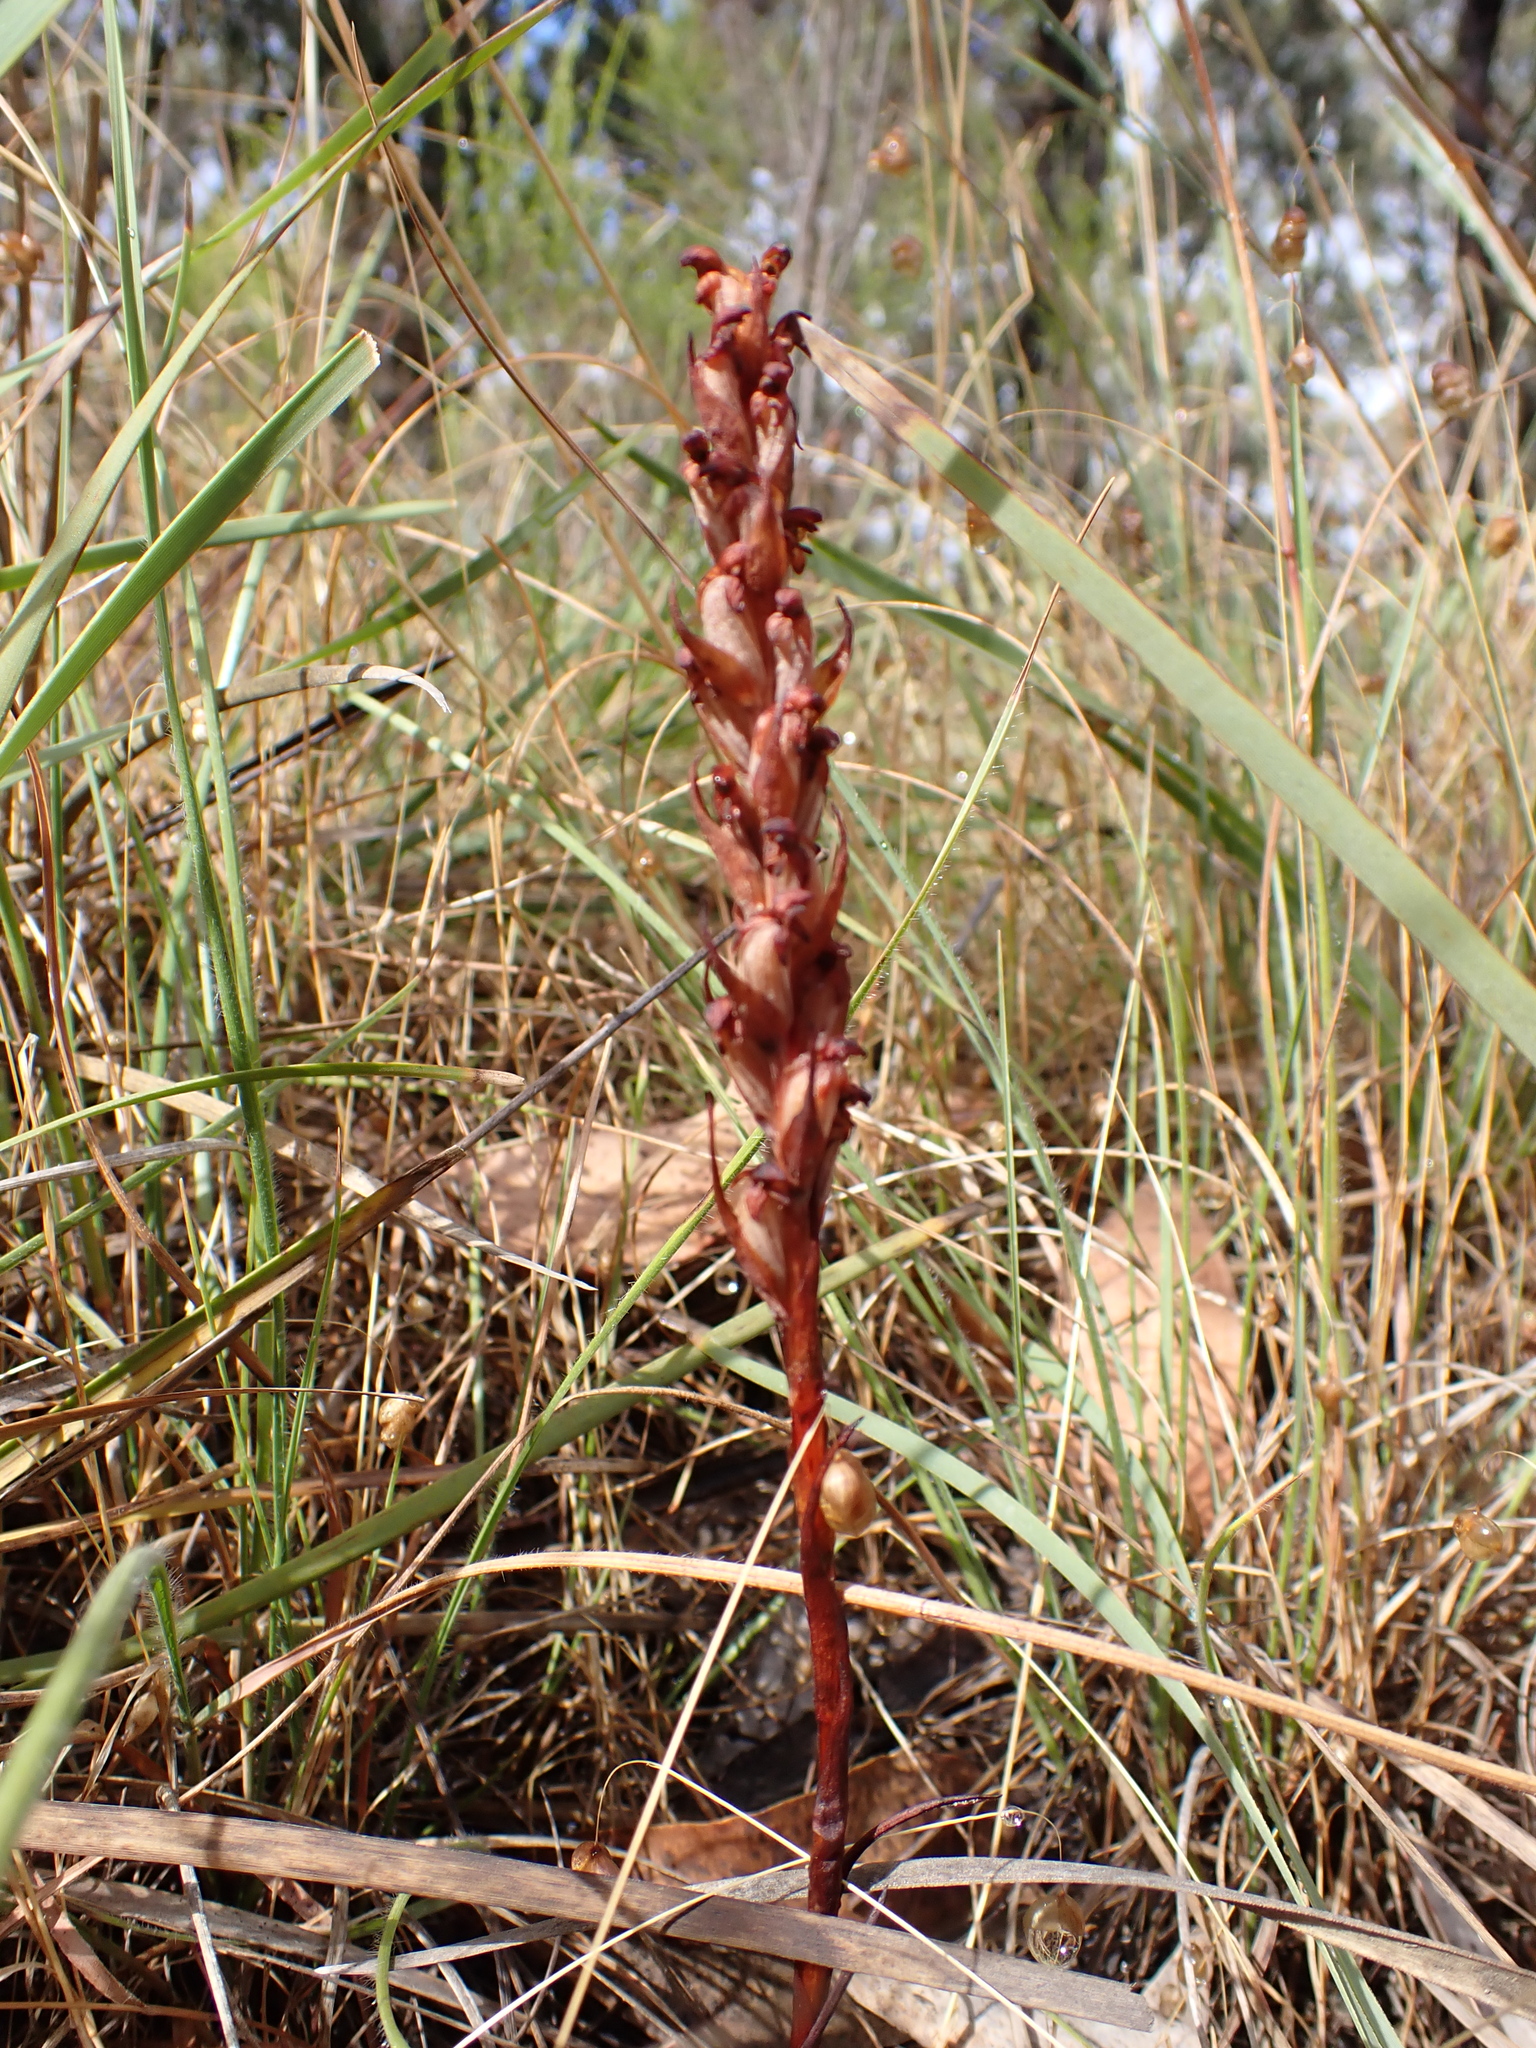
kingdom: Plantae
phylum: Tracheophyta
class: Liliopsida
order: Asparagales
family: Orchidaceae
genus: Disa
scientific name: Disa bracteata
